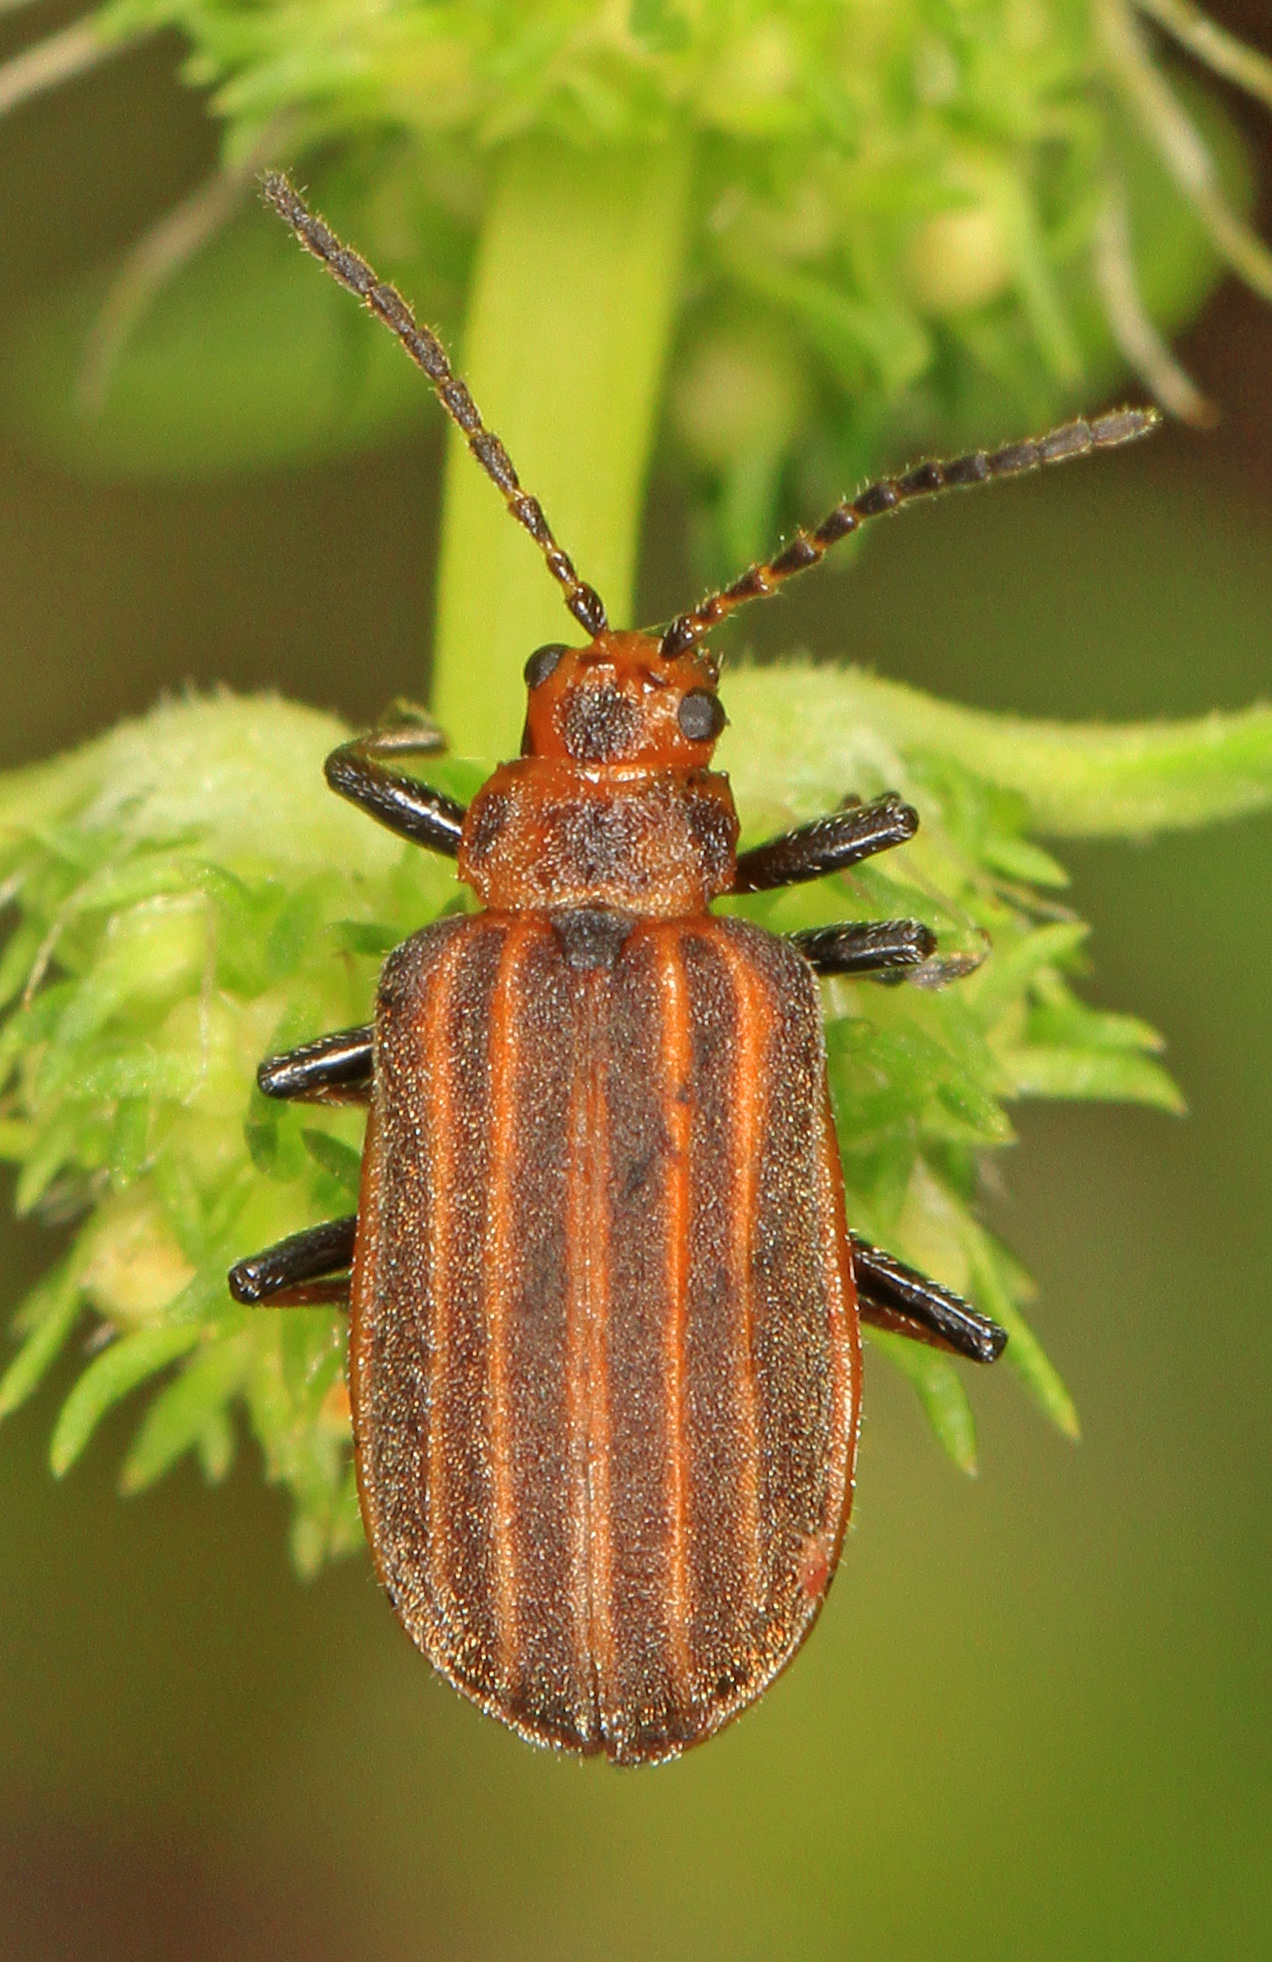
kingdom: Animalia
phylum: Arthropoda
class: Insecta
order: Coleoptera
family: Chrysomelidae
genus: Neolochmaea
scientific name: Neolochmaea dilatipennis
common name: Skeletonizing leaf beetle
